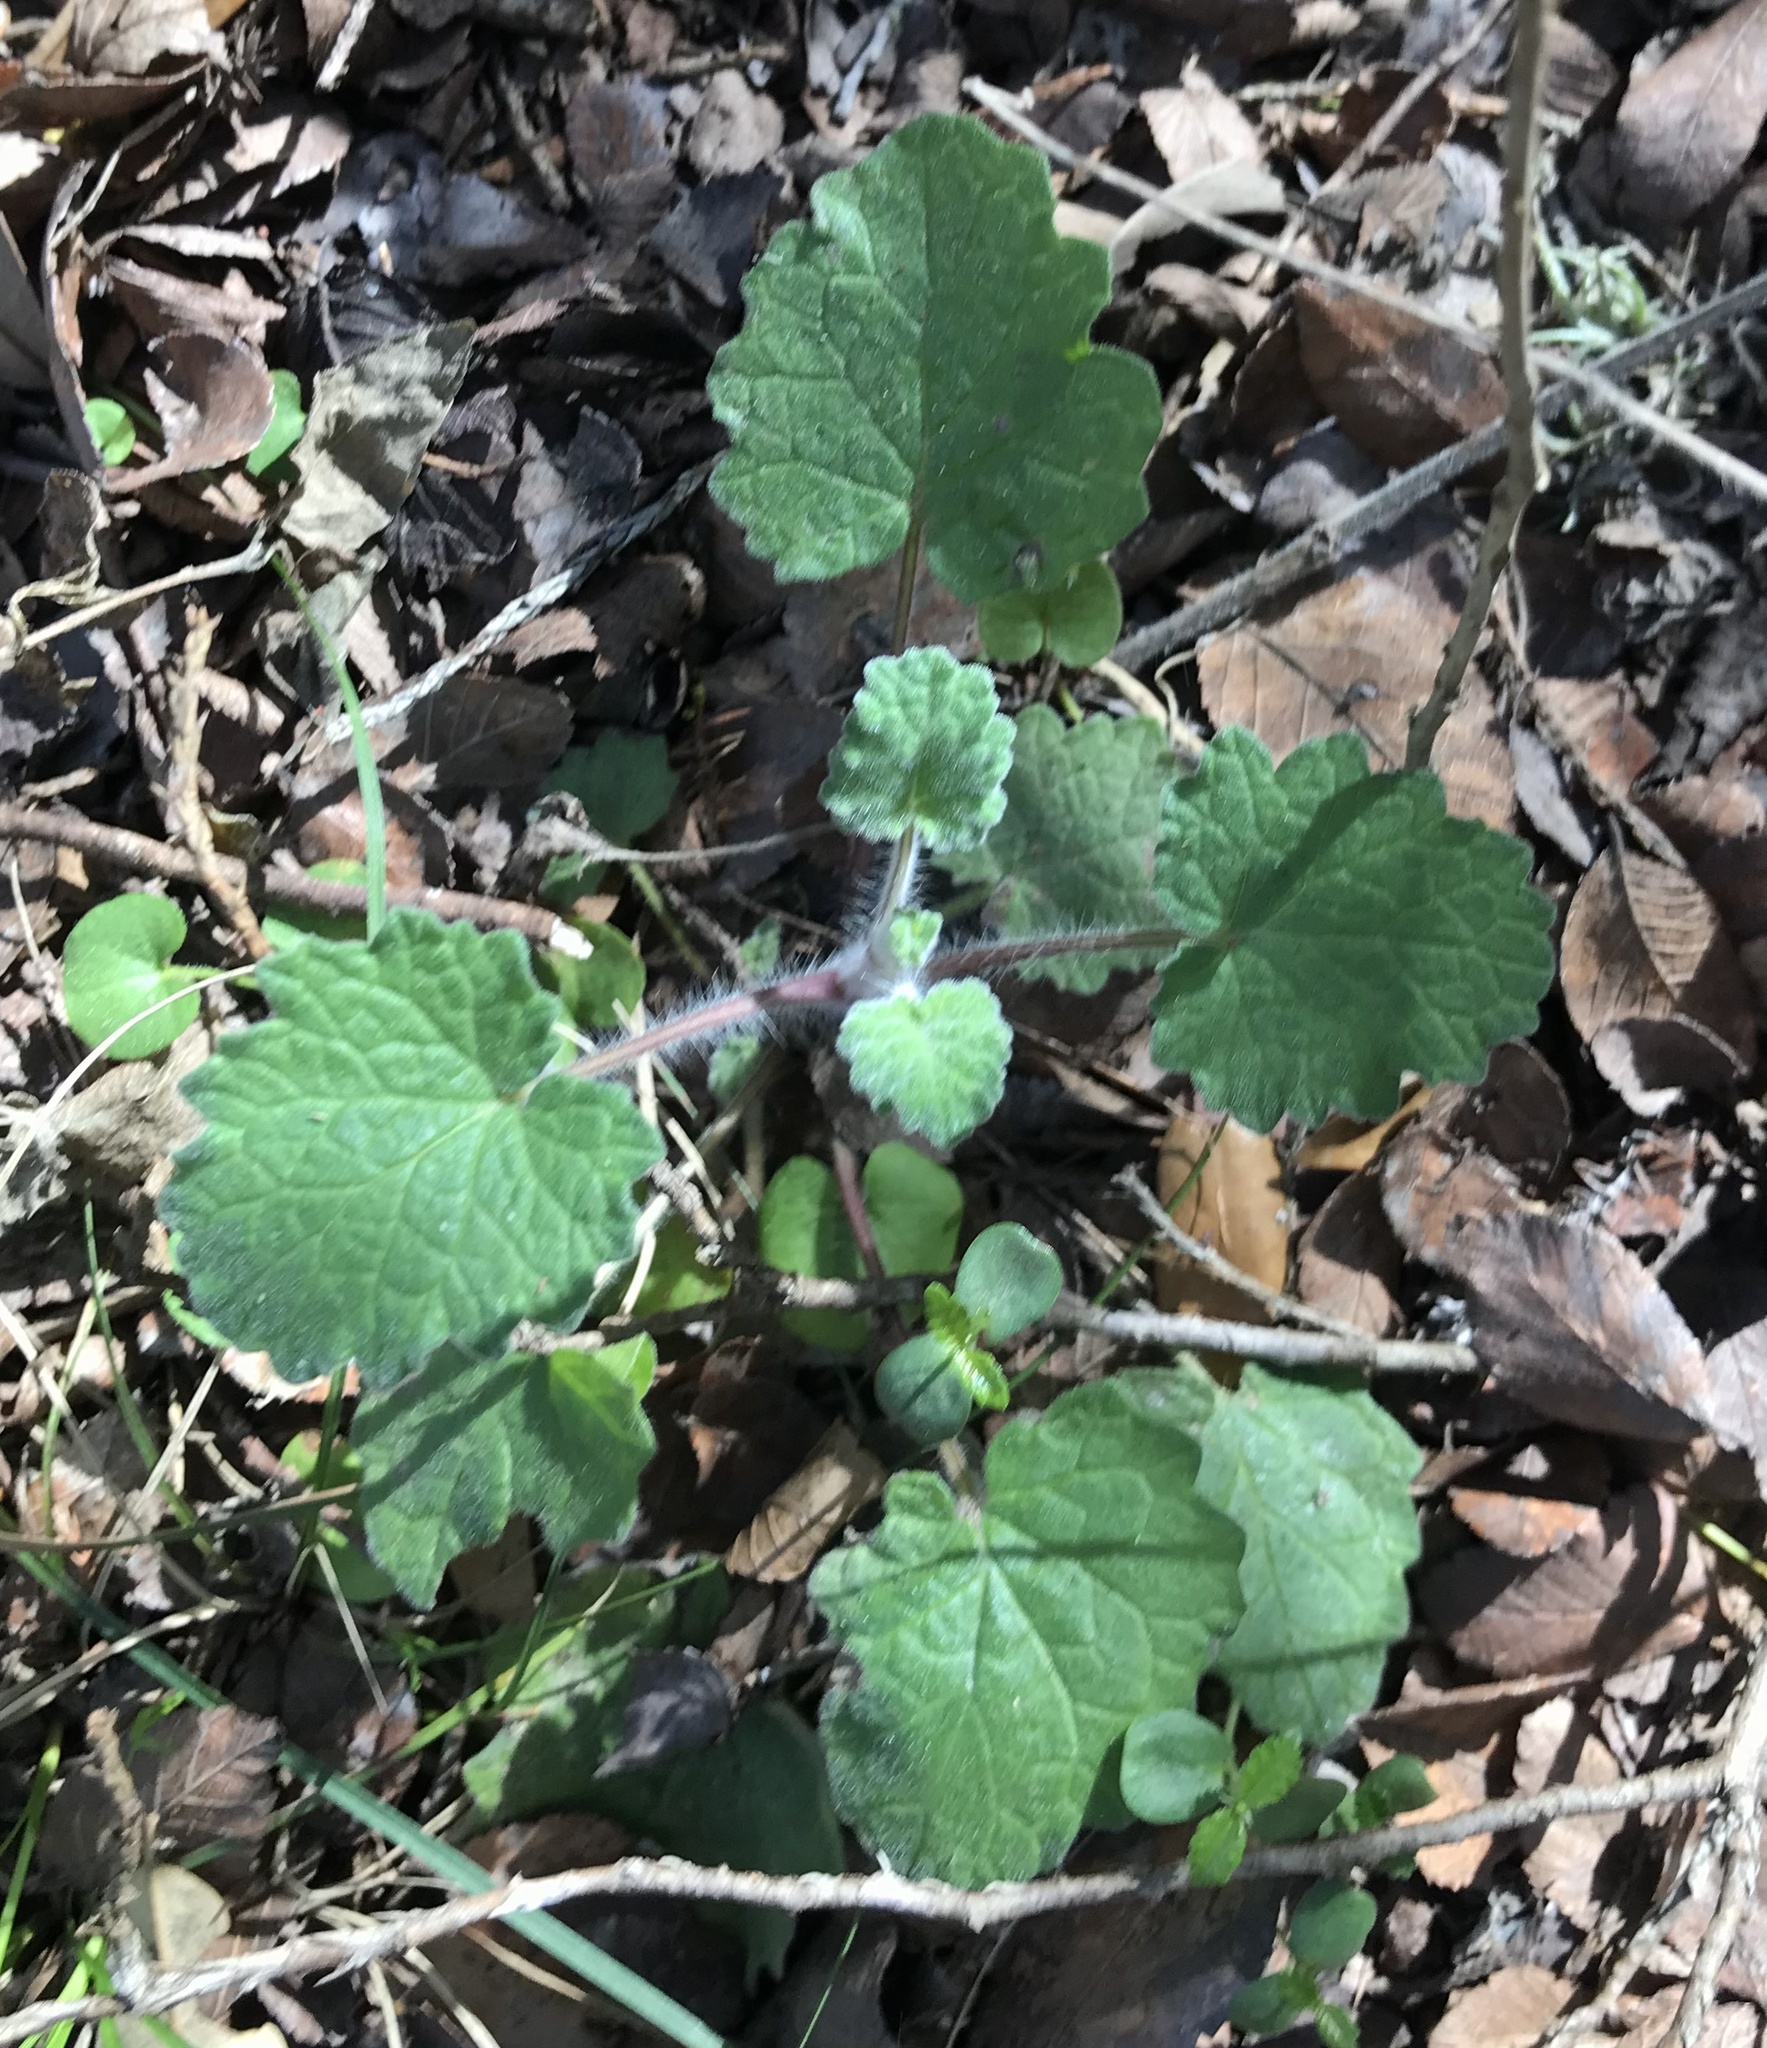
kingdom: Plantae
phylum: Tracheophyta
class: Magnoliopsida
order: Lamiales
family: Lamiaceae
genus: Salvia
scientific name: Salvia roemeriana
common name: Cedar sage
